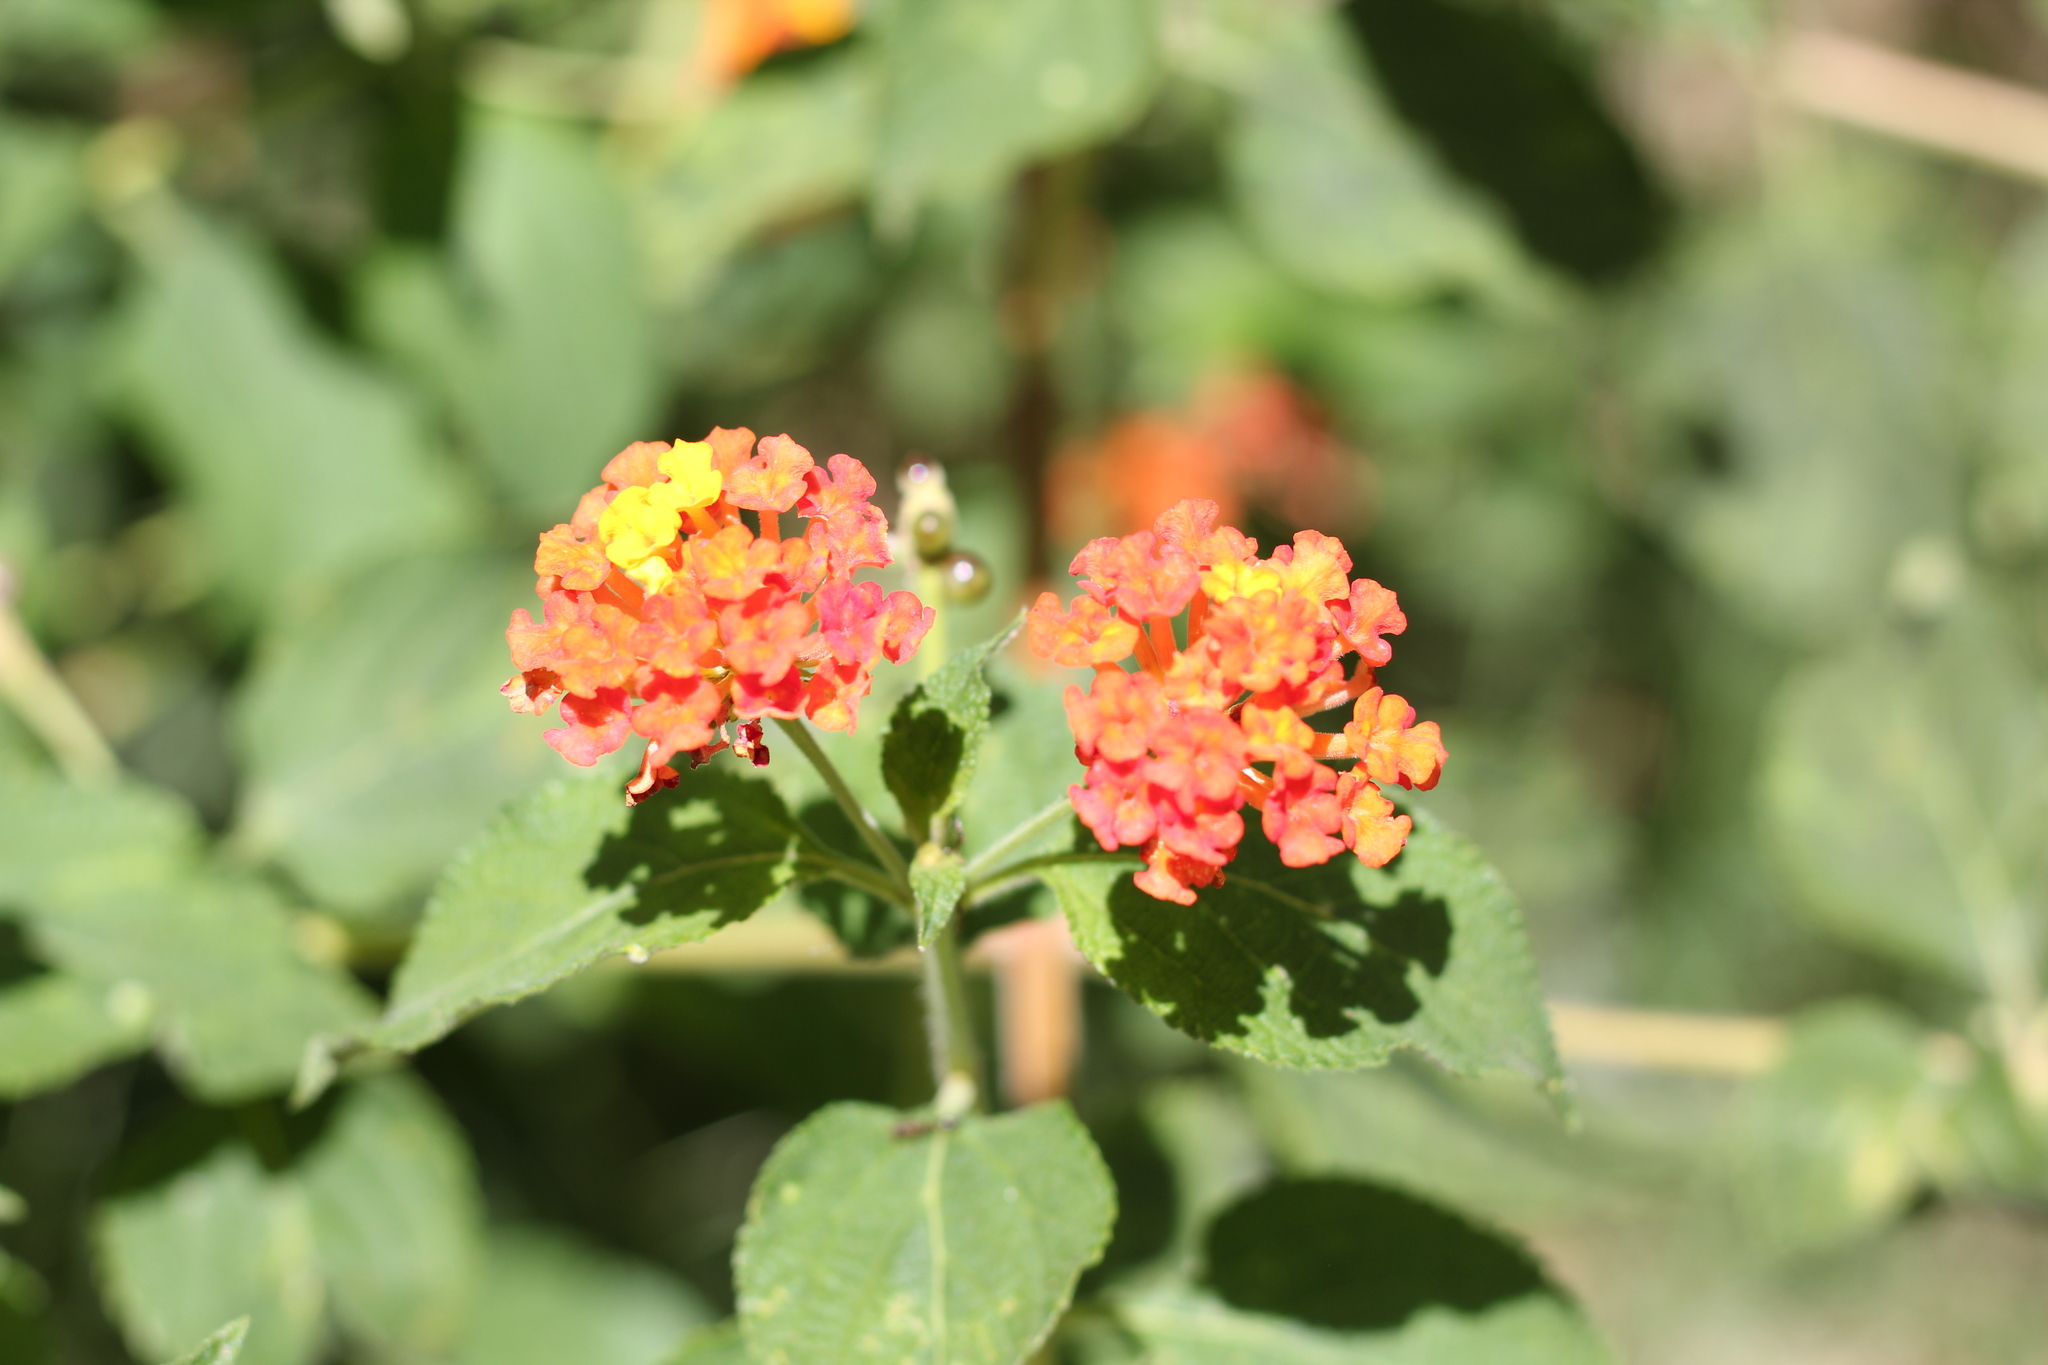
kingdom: Plantae
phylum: Tracheophyta
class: Magnoliopsida
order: Lamiales
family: Verbenaceae
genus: Lantana
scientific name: Lantana camara
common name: Lantana
